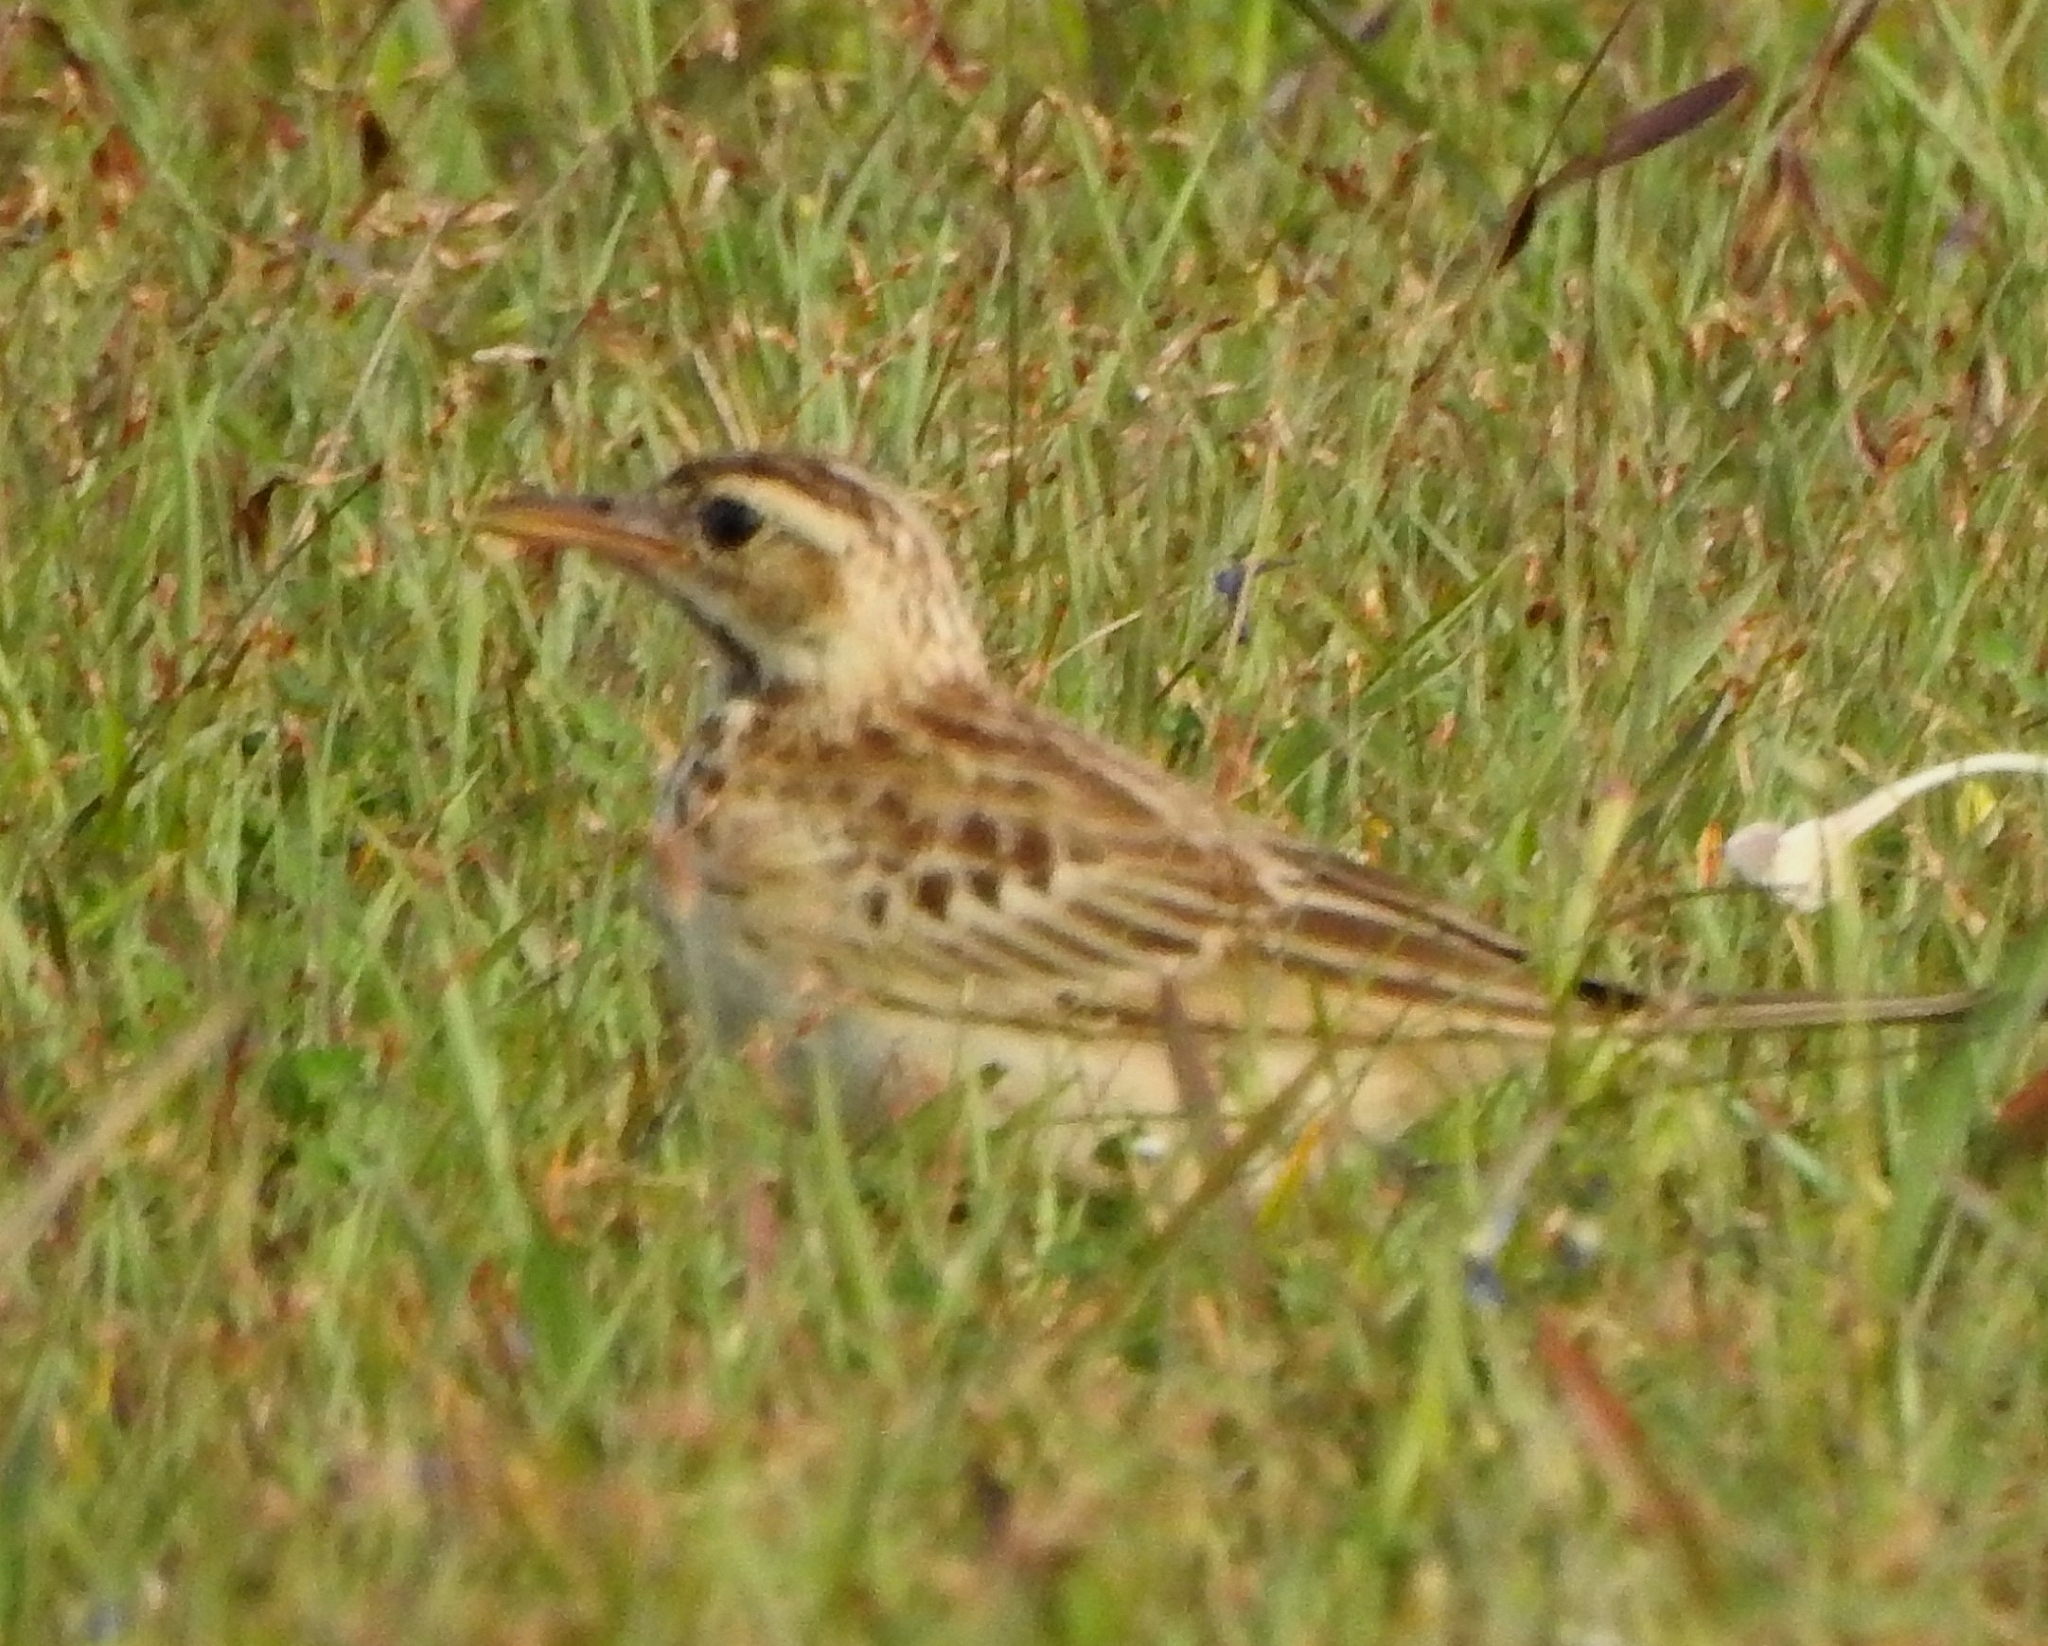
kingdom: Animalia
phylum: Chordata
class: Aves
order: Passeriformes
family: Motacillidae
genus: Anthus
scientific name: Anthus rufulus
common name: Paddyfield pipit
